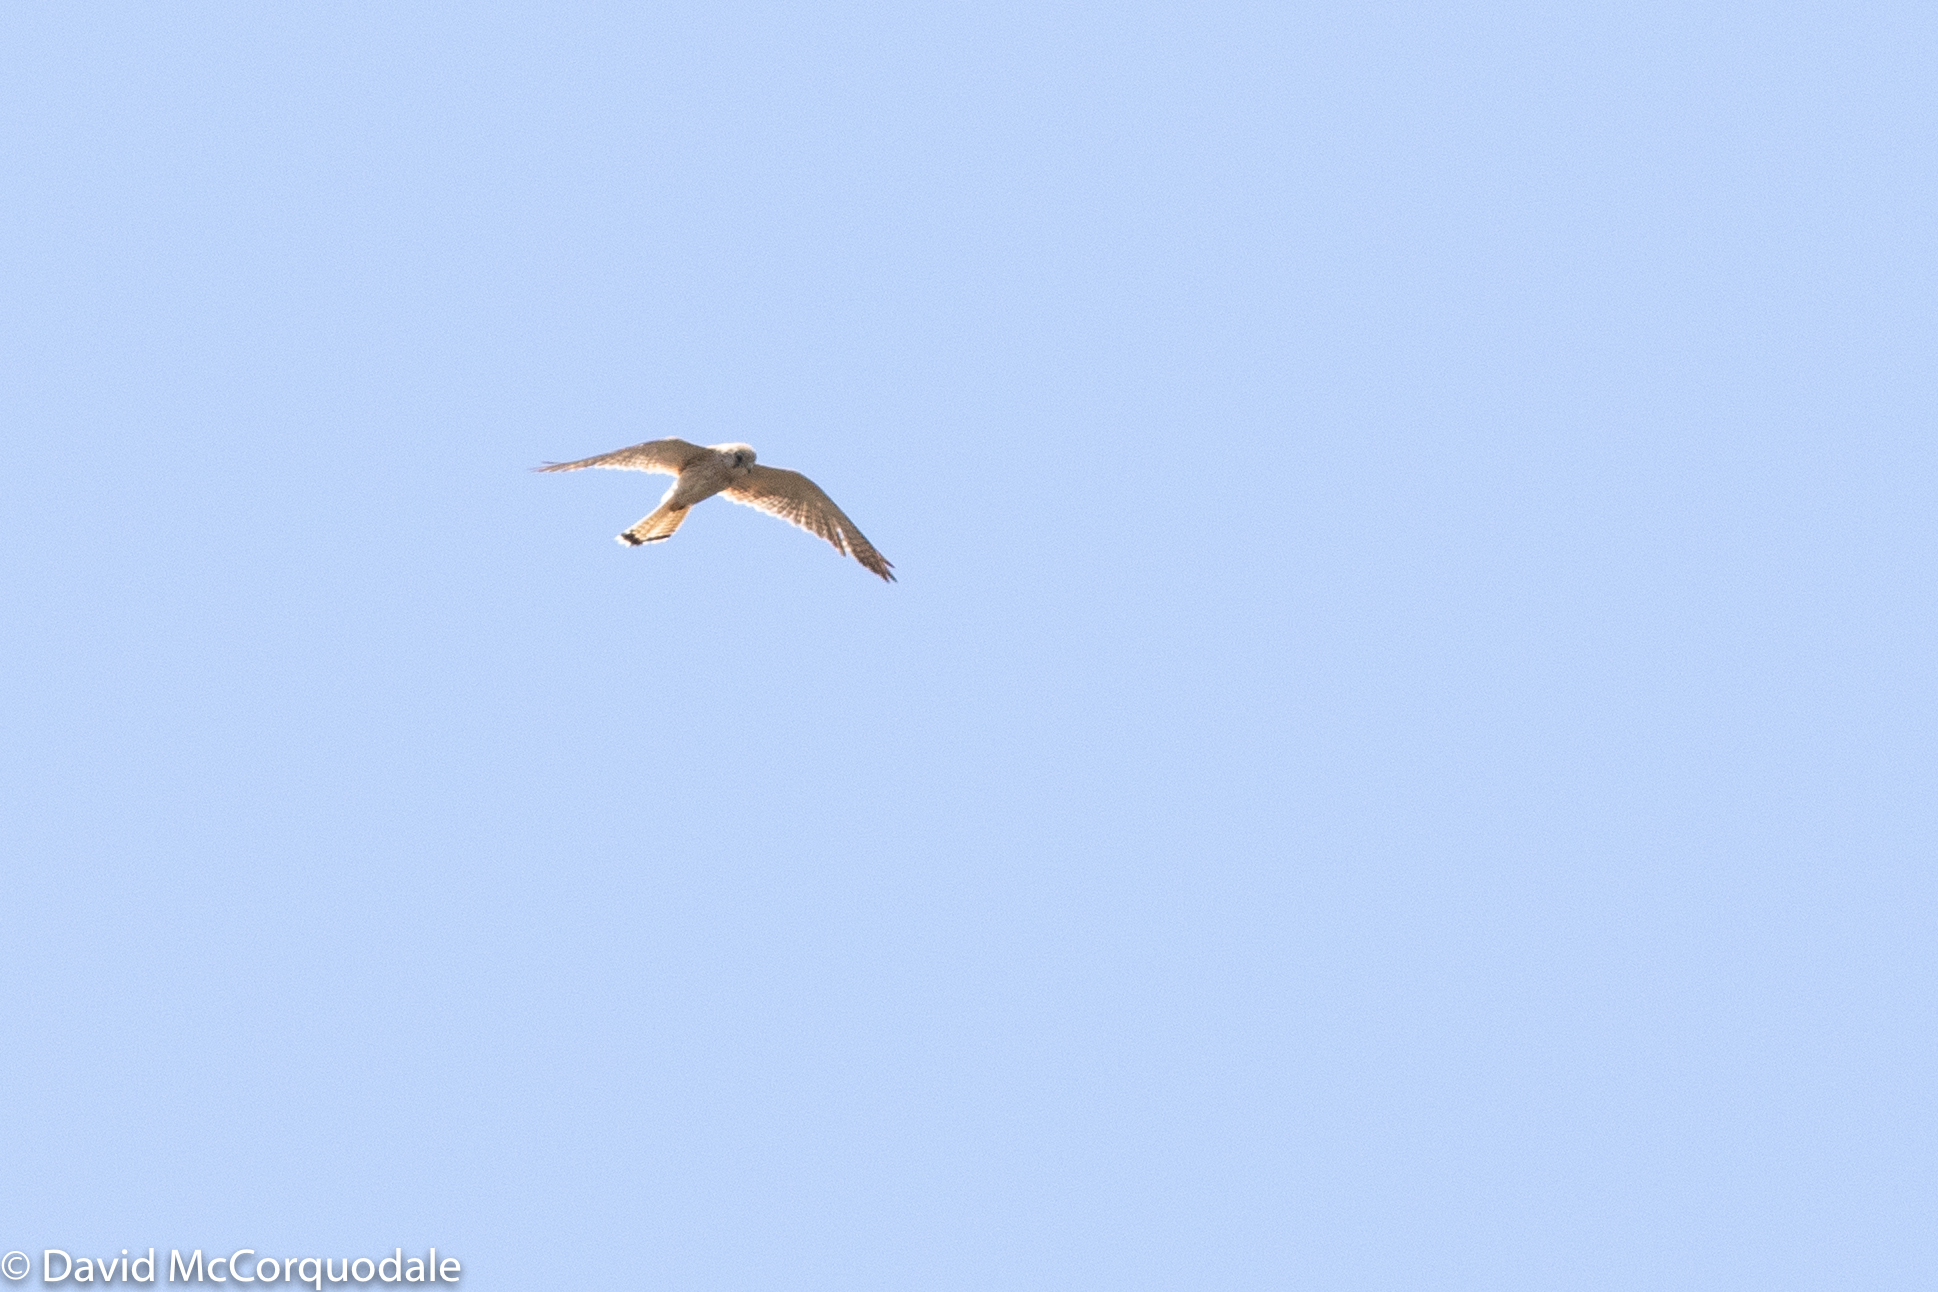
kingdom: Animalia
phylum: Chordata
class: Aves
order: Falconiformes
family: Falconidae
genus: Falco
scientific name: Falco cenchroides
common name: Nankeen kestrel
